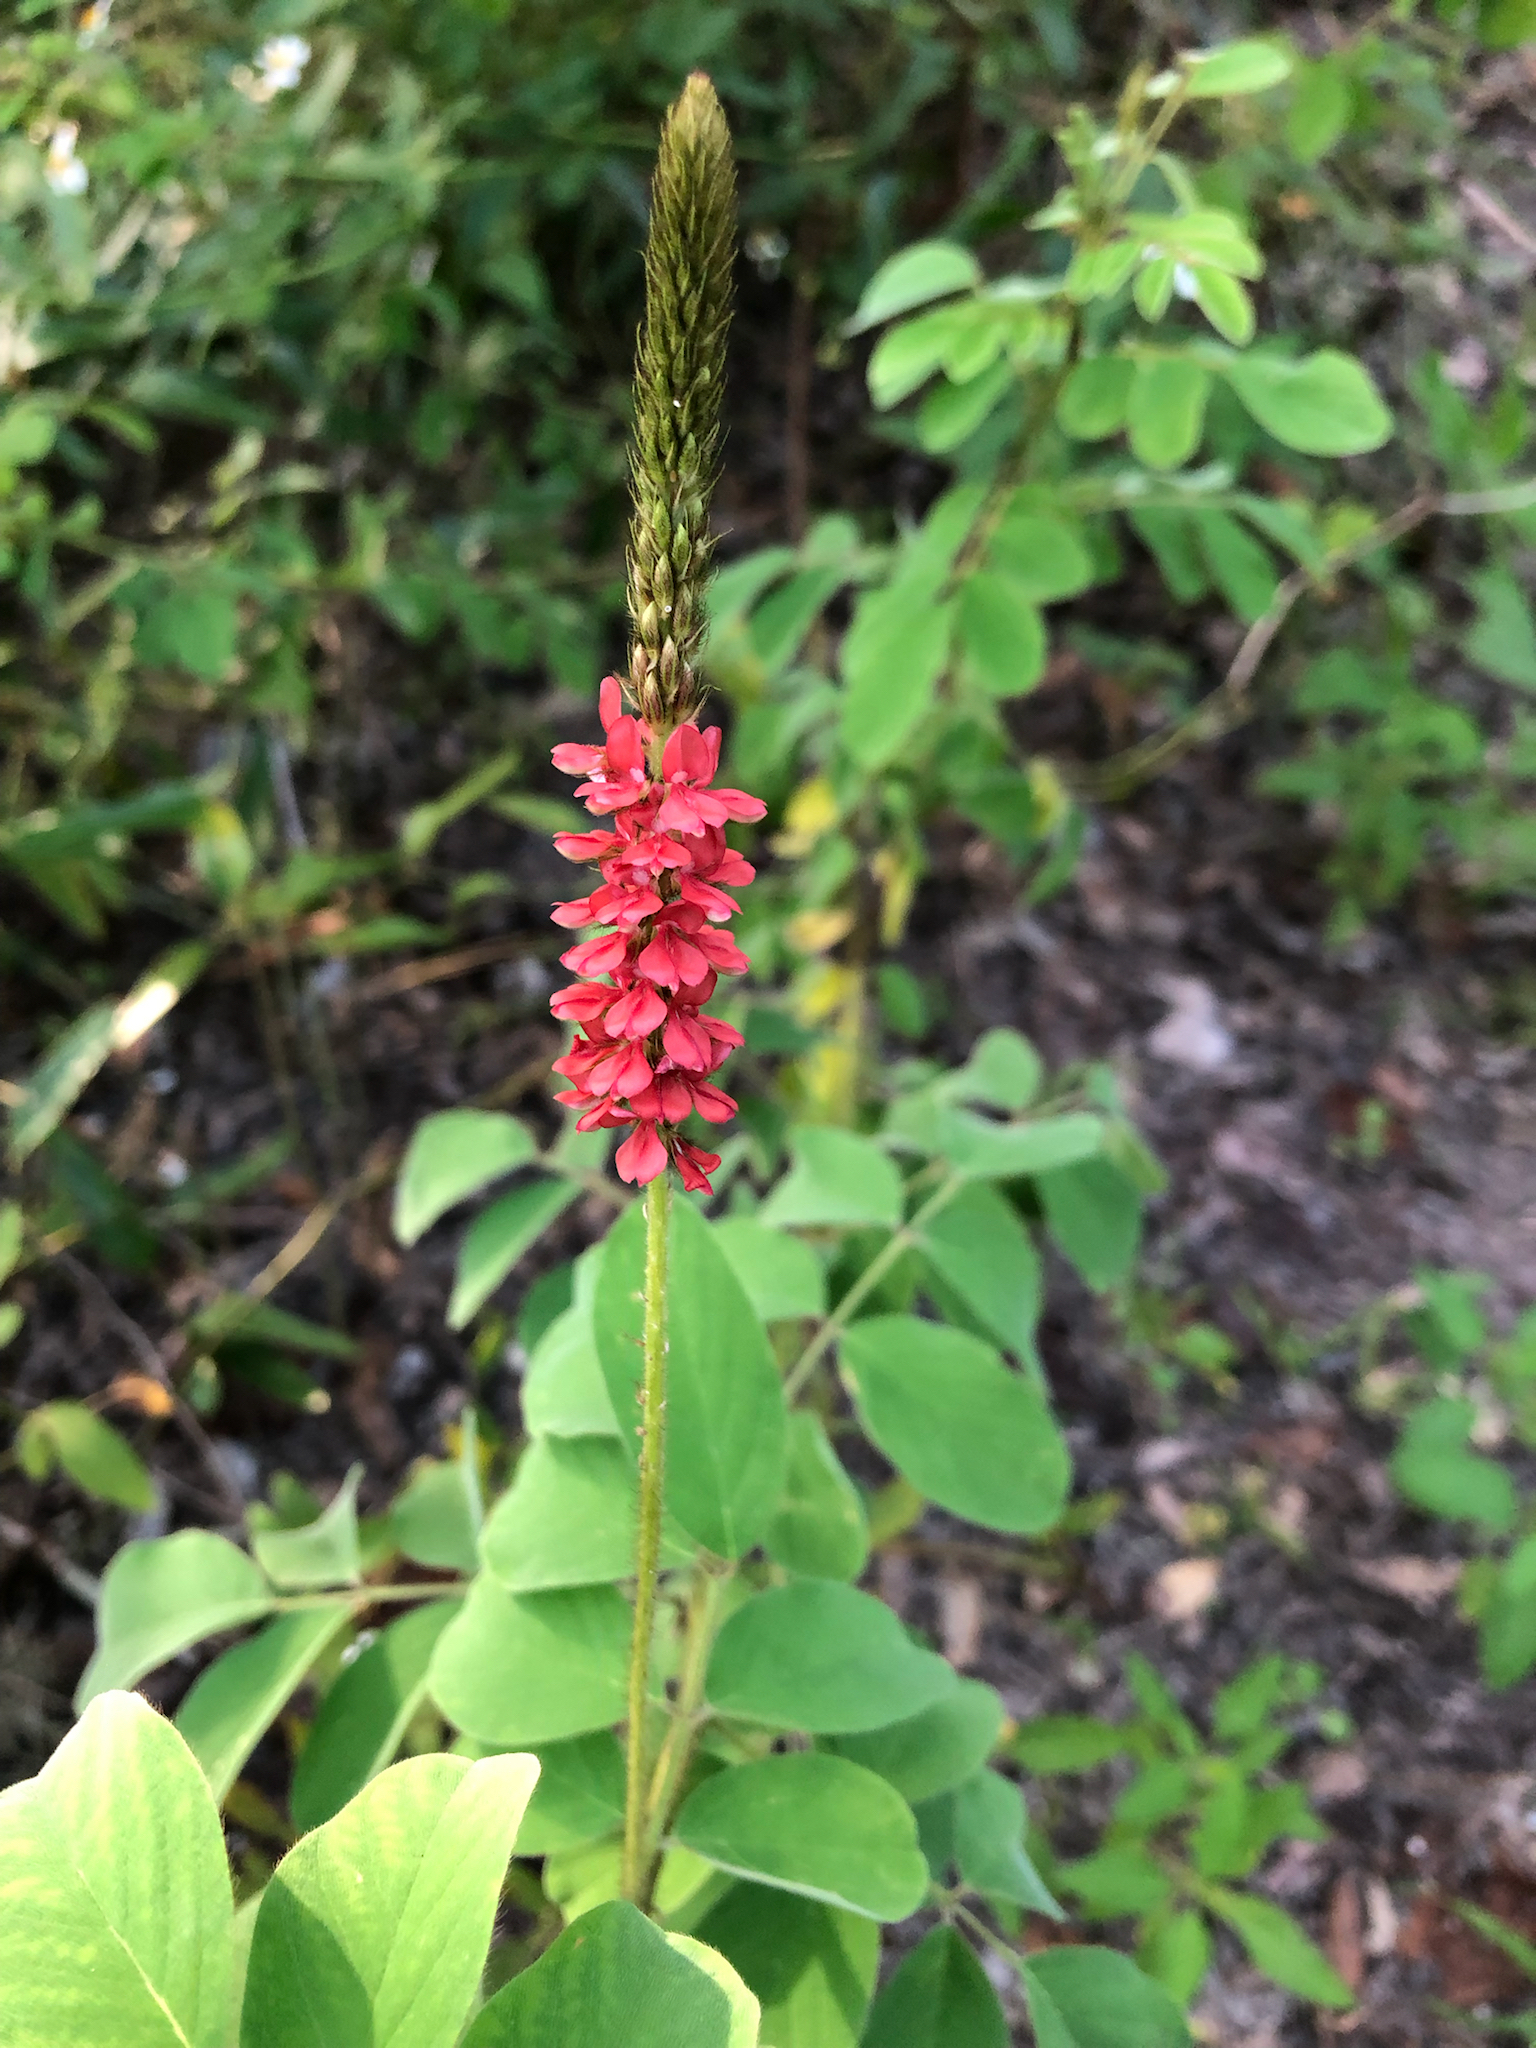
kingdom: Plantae
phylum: Tracheophyta
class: Magnoliopsida
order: Fabales
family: Fabaceae
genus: Indigofera
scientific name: Indigofera hirsuta
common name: Hairy indigo
